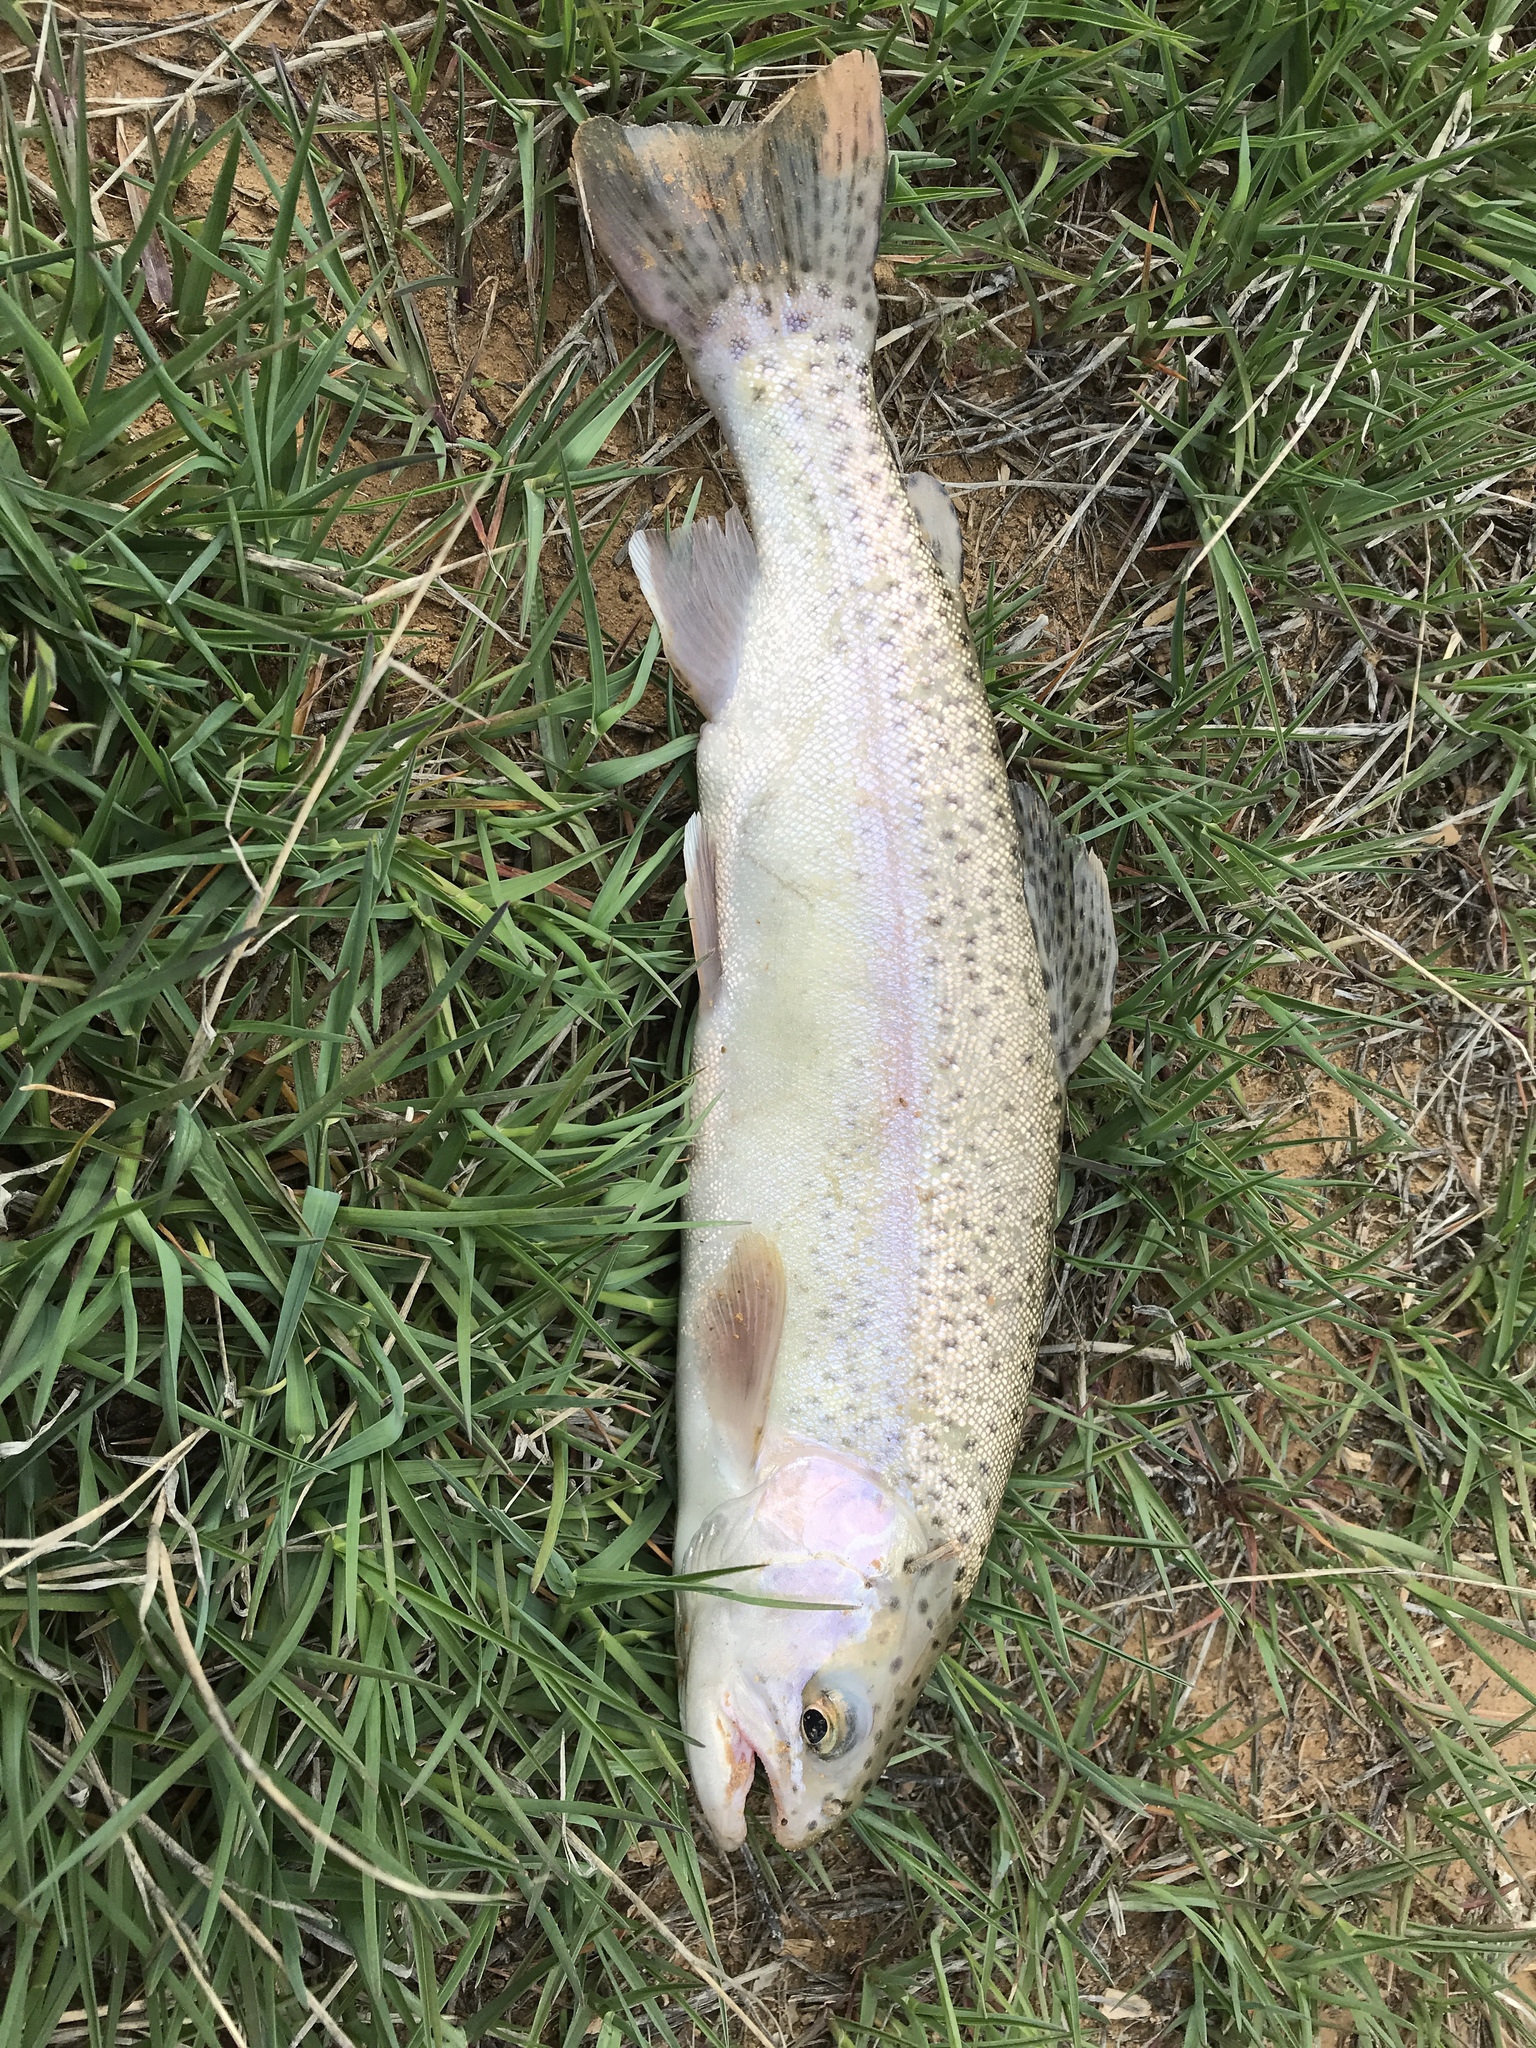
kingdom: Animalia
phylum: Chordata
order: Salmoniformes
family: Salmonidae
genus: Oncorhynchus
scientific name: Oncorhynchus mykiss
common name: Rainbow trout
